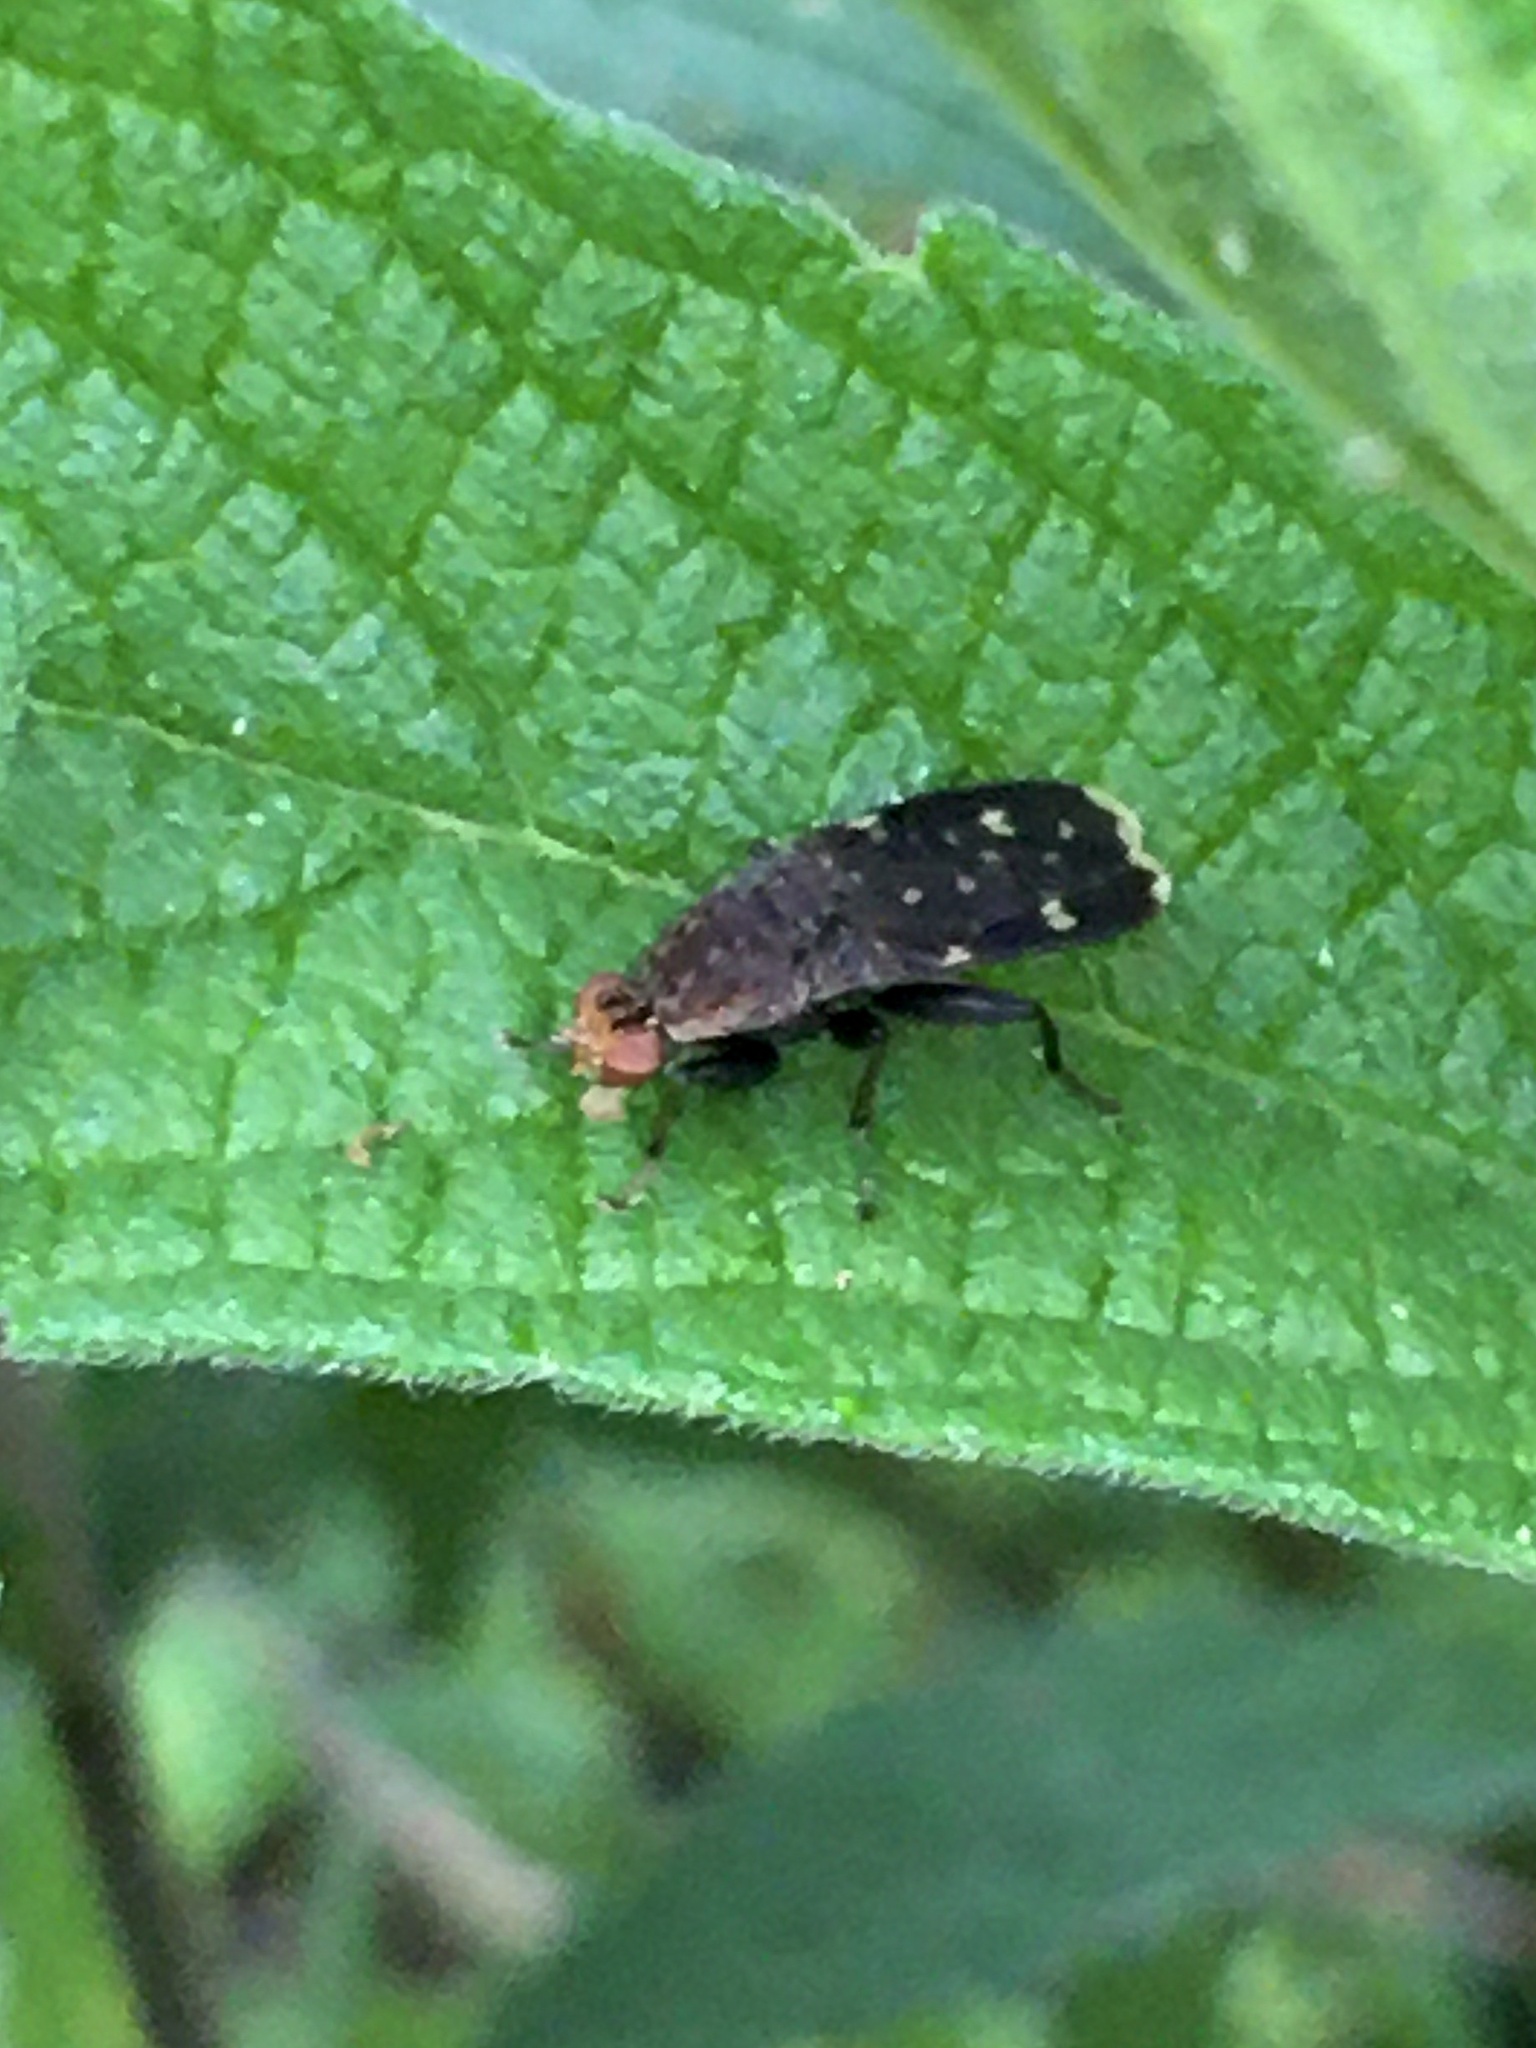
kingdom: Animalia
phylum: Arthropoda
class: Insecta
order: Diptera
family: Heleomyzidae
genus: Suillia
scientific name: Suillia picta
